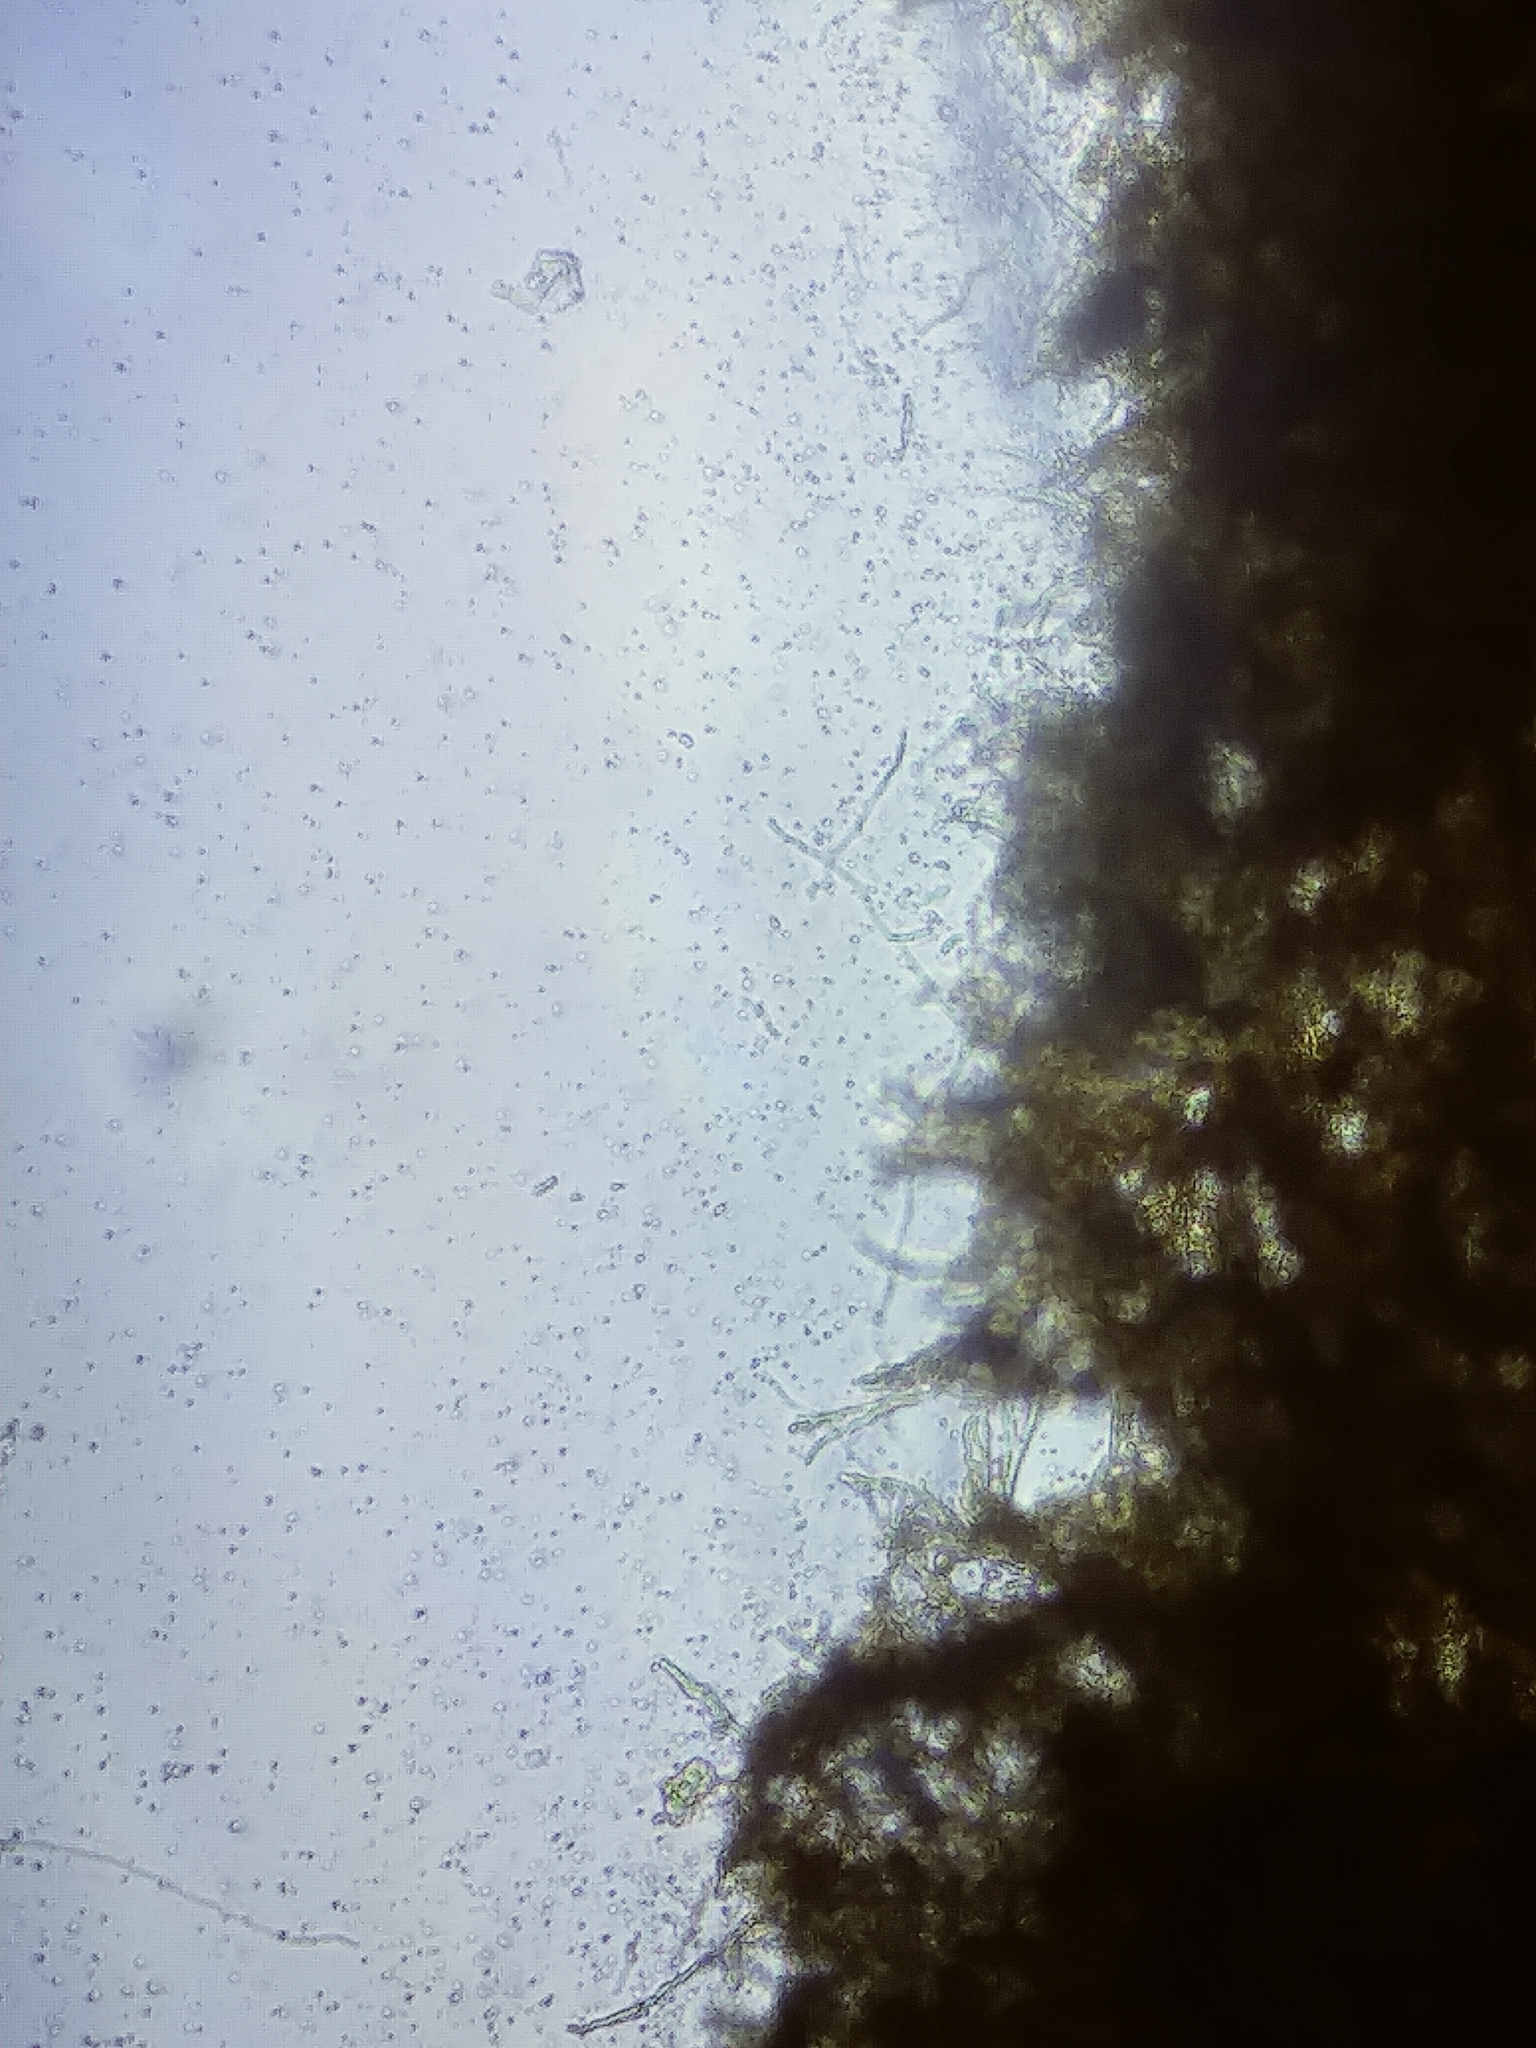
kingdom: Fungi
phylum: Basidiomycota
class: Agaricomycetes
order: Corticiales
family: Vuilleminiaceae
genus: Cytidia
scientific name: Cytidia salicina
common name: Scarlet splash
